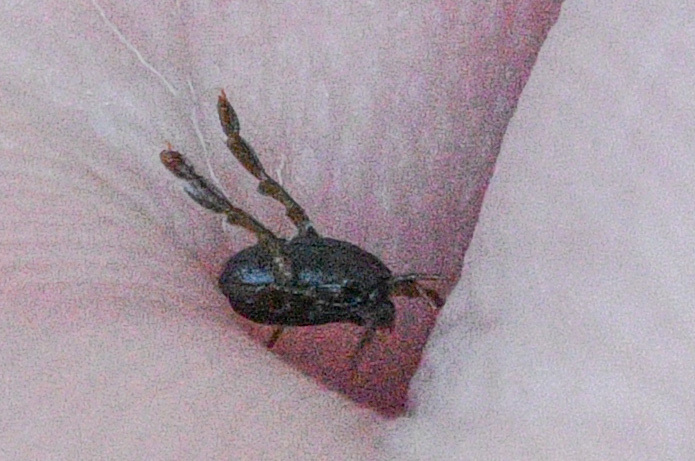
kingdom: Animalia
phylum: Arthropoda
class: Arachnida
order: Trombidiformes
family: Thermacaridae
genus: Thermacarus
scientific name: Thermacarus nevadensis
